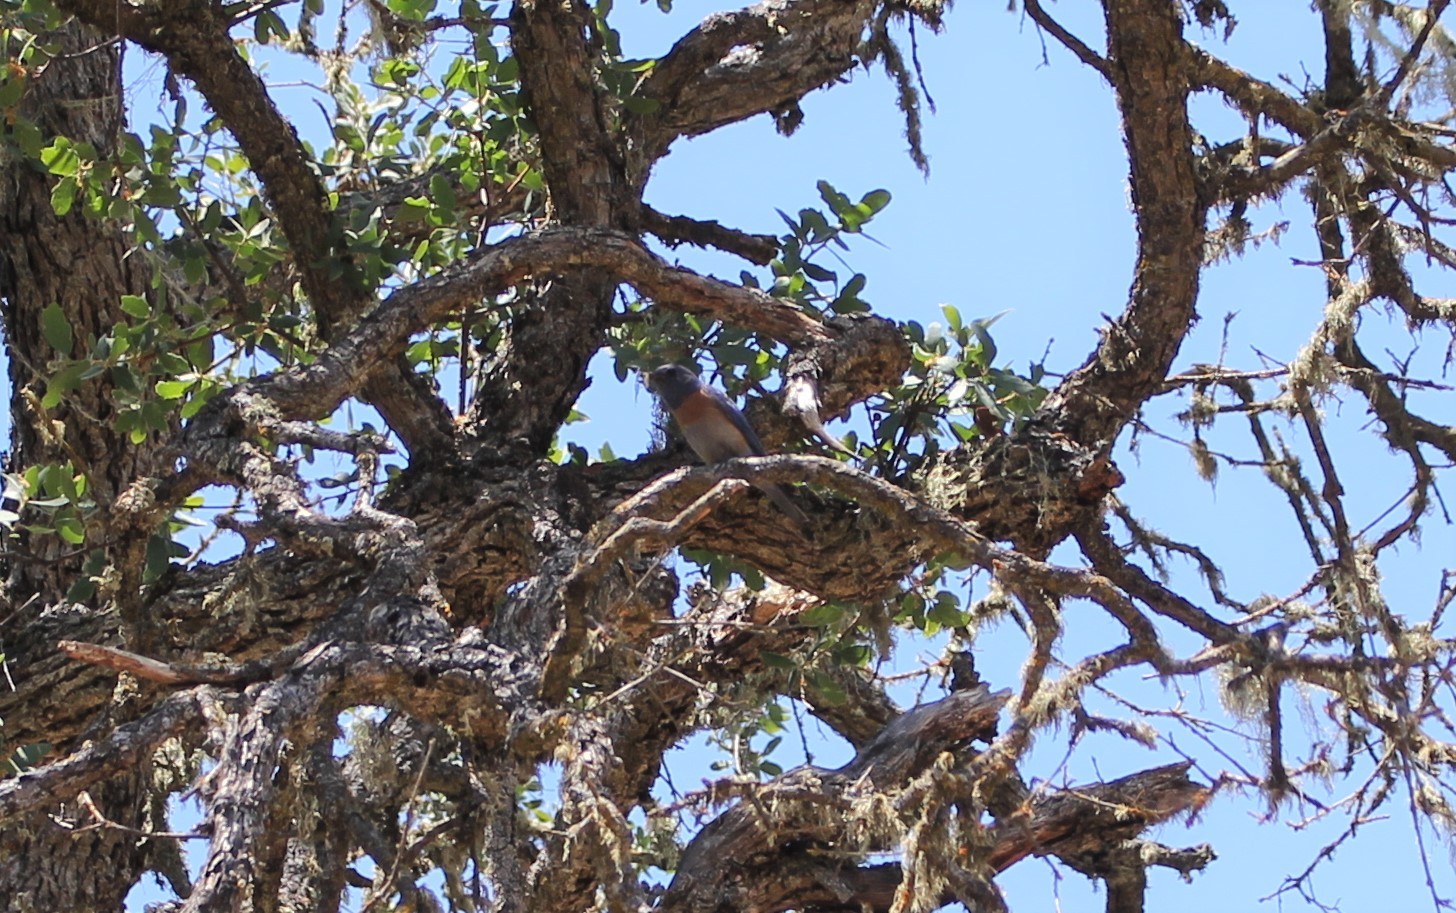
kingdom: Animalia
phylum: Chordata
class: Aves
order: Passeriformes
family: Turdidae
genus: Sialia
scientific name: Sialia mexicana
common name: Western bluebird
